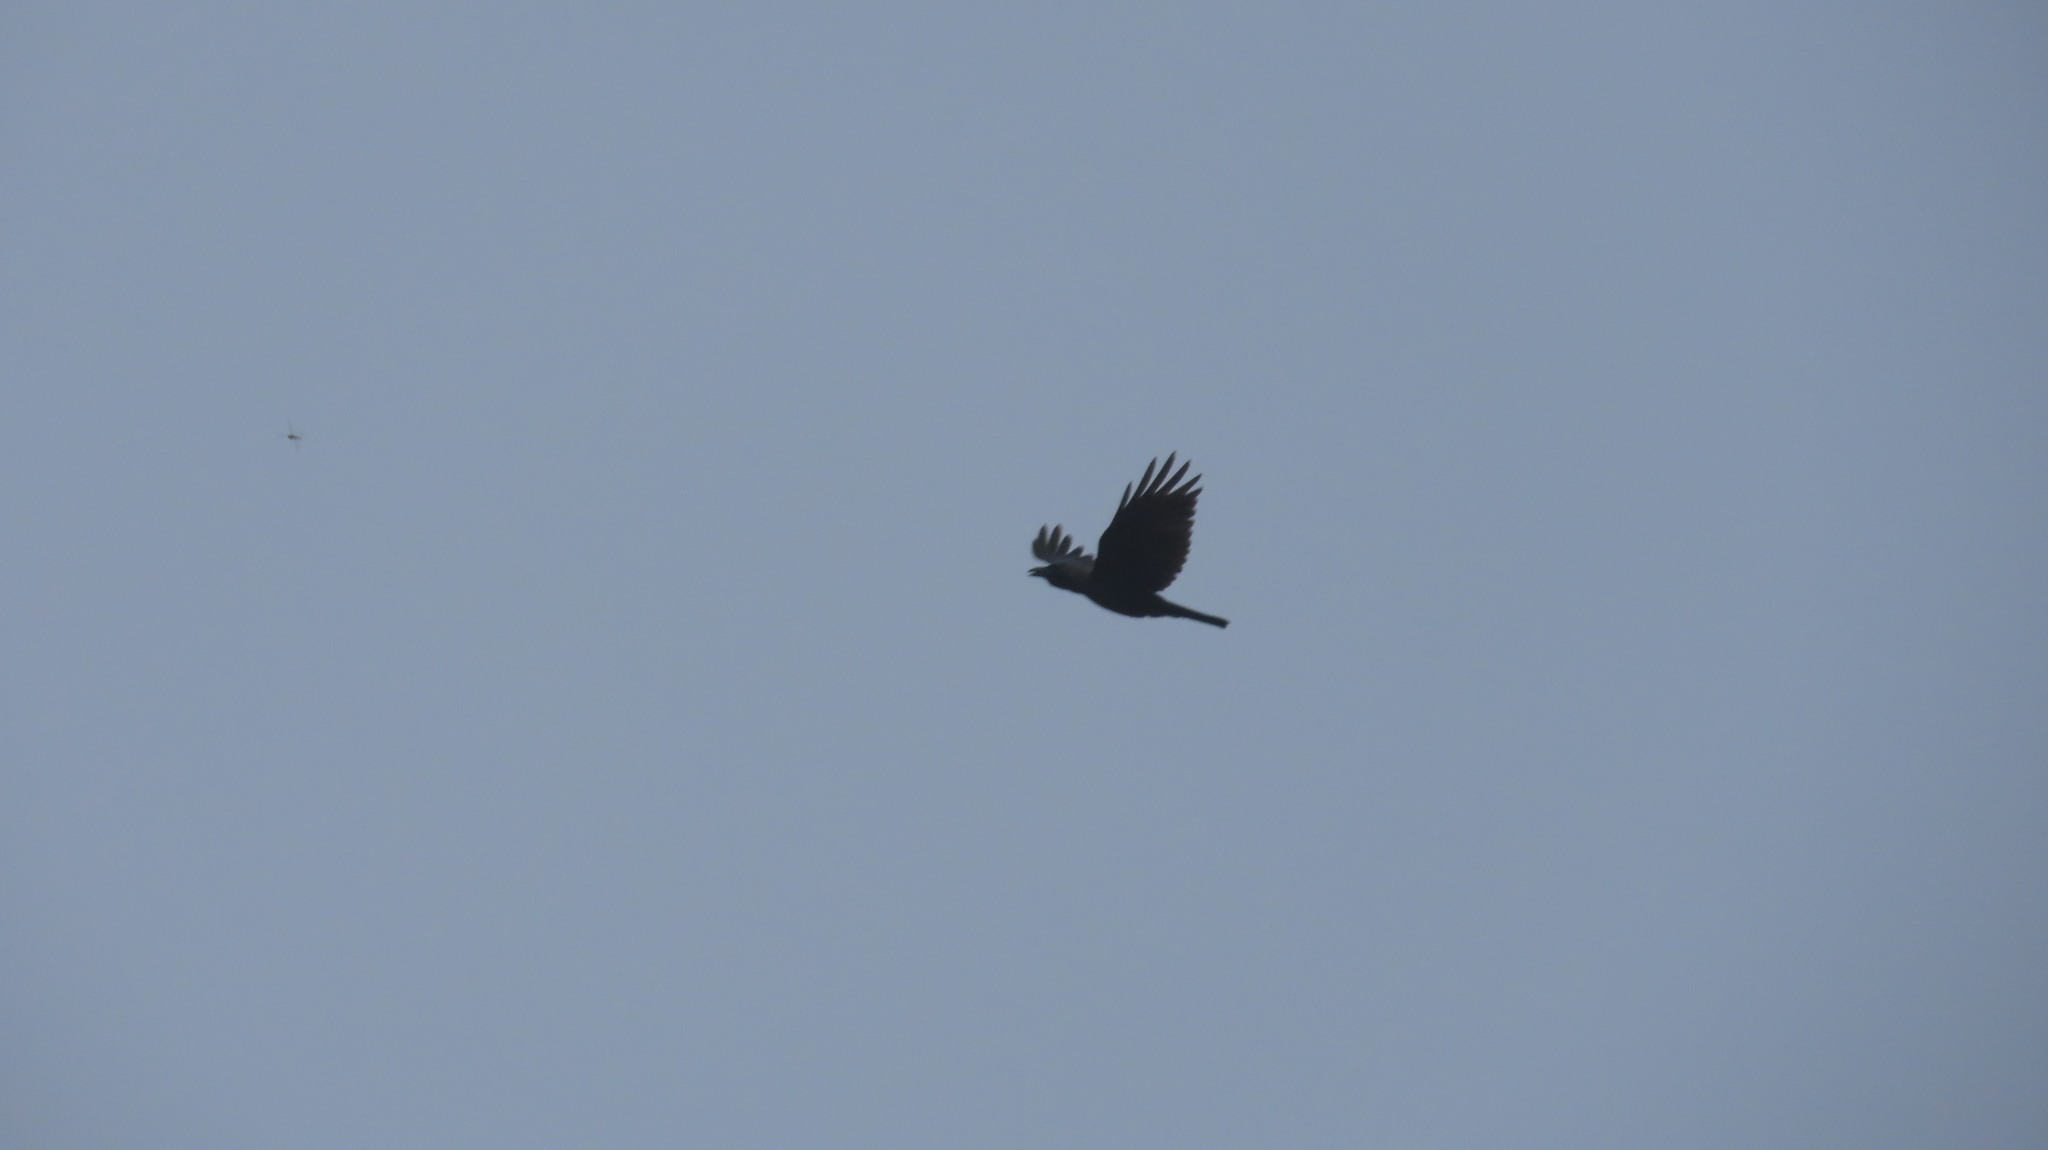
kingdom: Animalia
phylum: Chordata
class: Aves
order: Passeriformes
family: Corvidae
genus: Corvus
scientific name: Corvus splendens
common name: House crow
